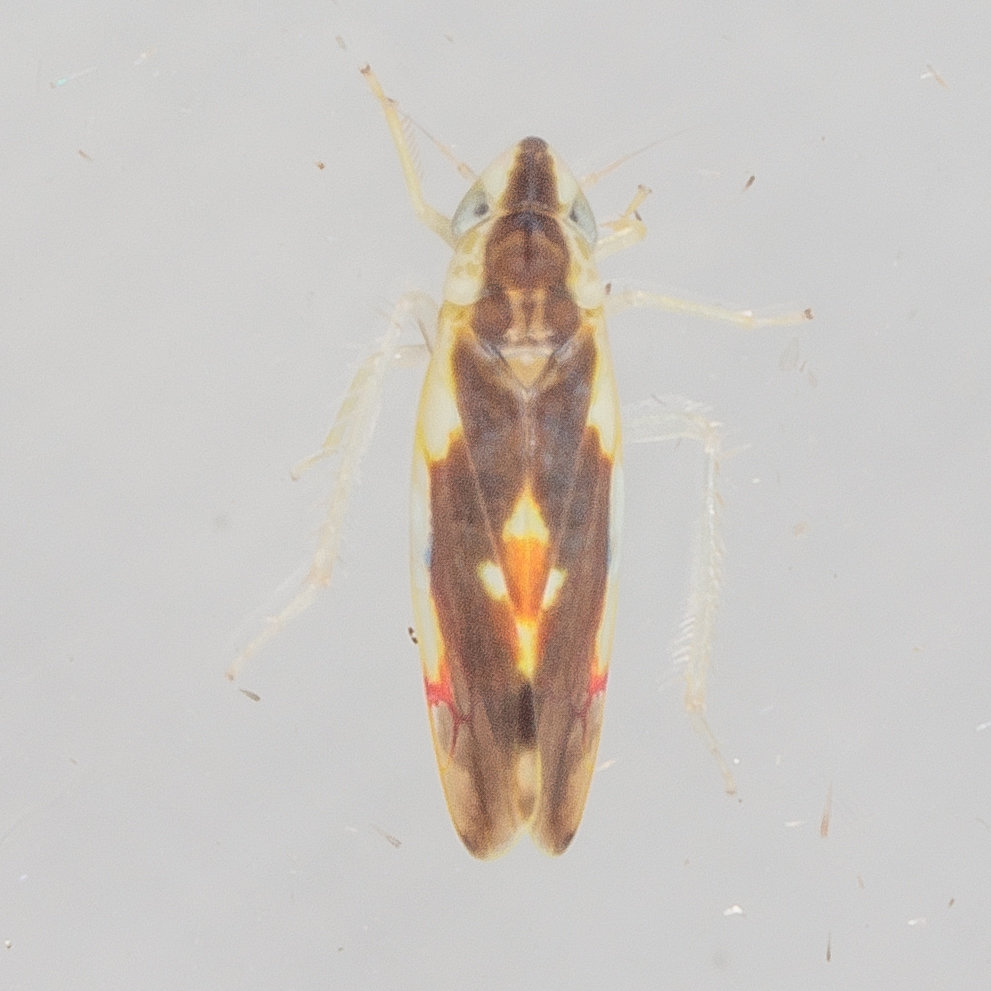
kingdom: Animalia
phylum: Arthropoda
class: Insecta
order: Hemiptera
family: Cicadellidae
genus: Erythroneura
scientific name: Erythroneura aclys
